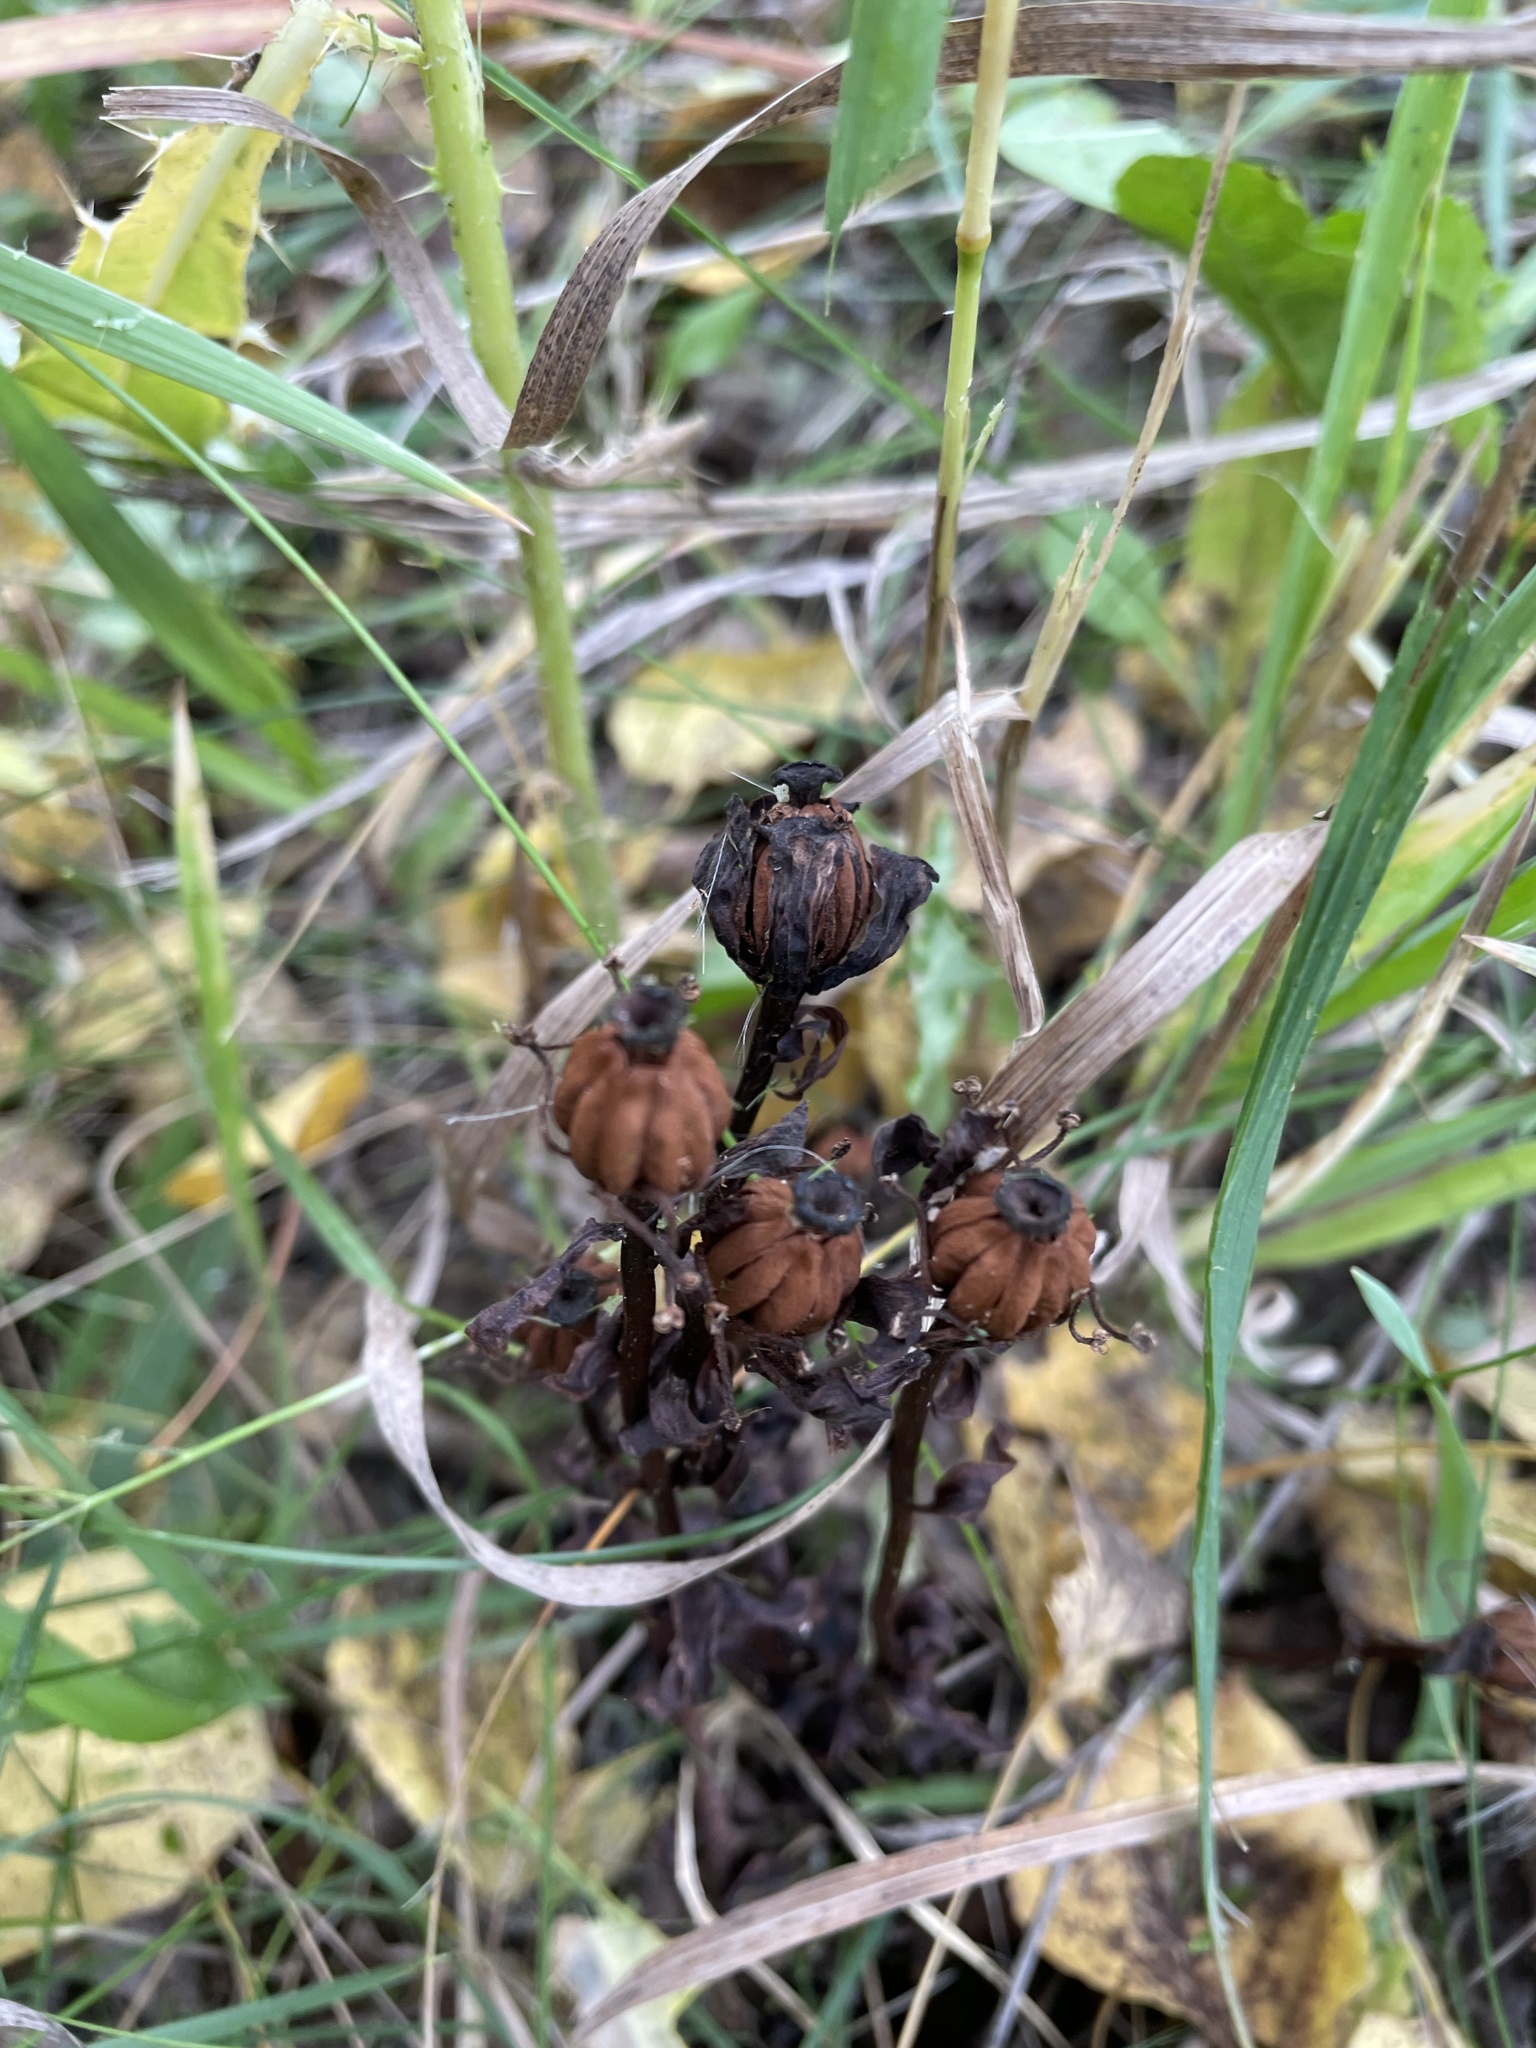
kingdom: Plantae
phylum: Tracheophyta
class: Magnoliopsida
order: Ericales
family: Ericaceae
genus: Monotropa
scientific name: Monotropa uniflora
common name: Convulsion root
